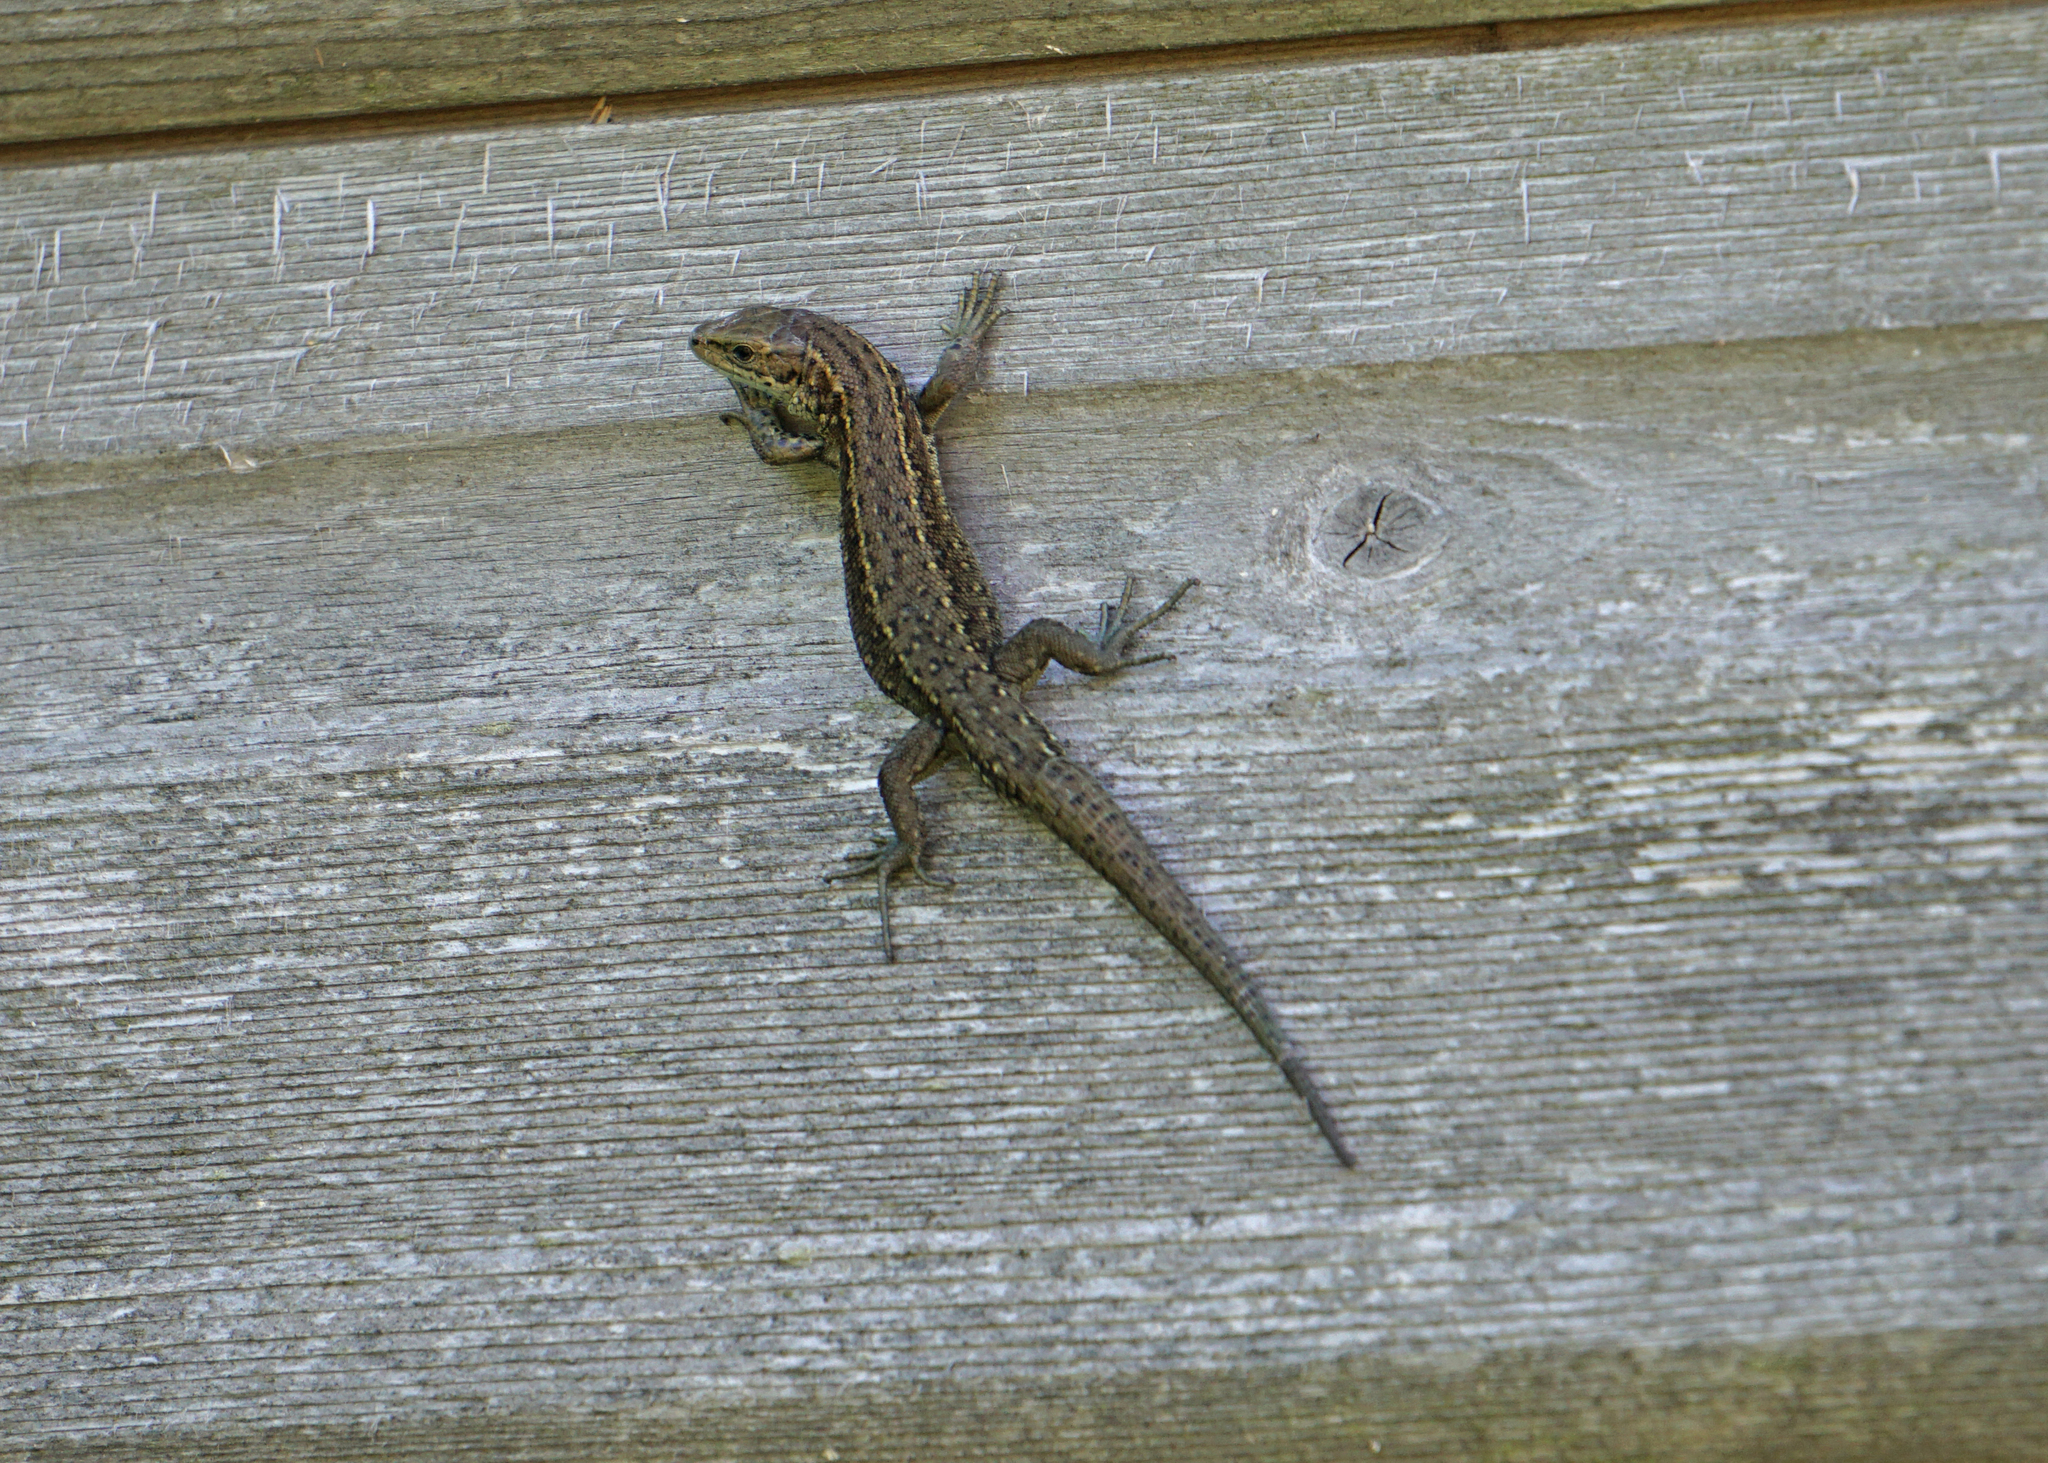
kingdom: Animalia
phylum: Chordata
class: Squamata
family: Lacertidae
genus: Zootoca
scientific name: Zootoca vivipara
